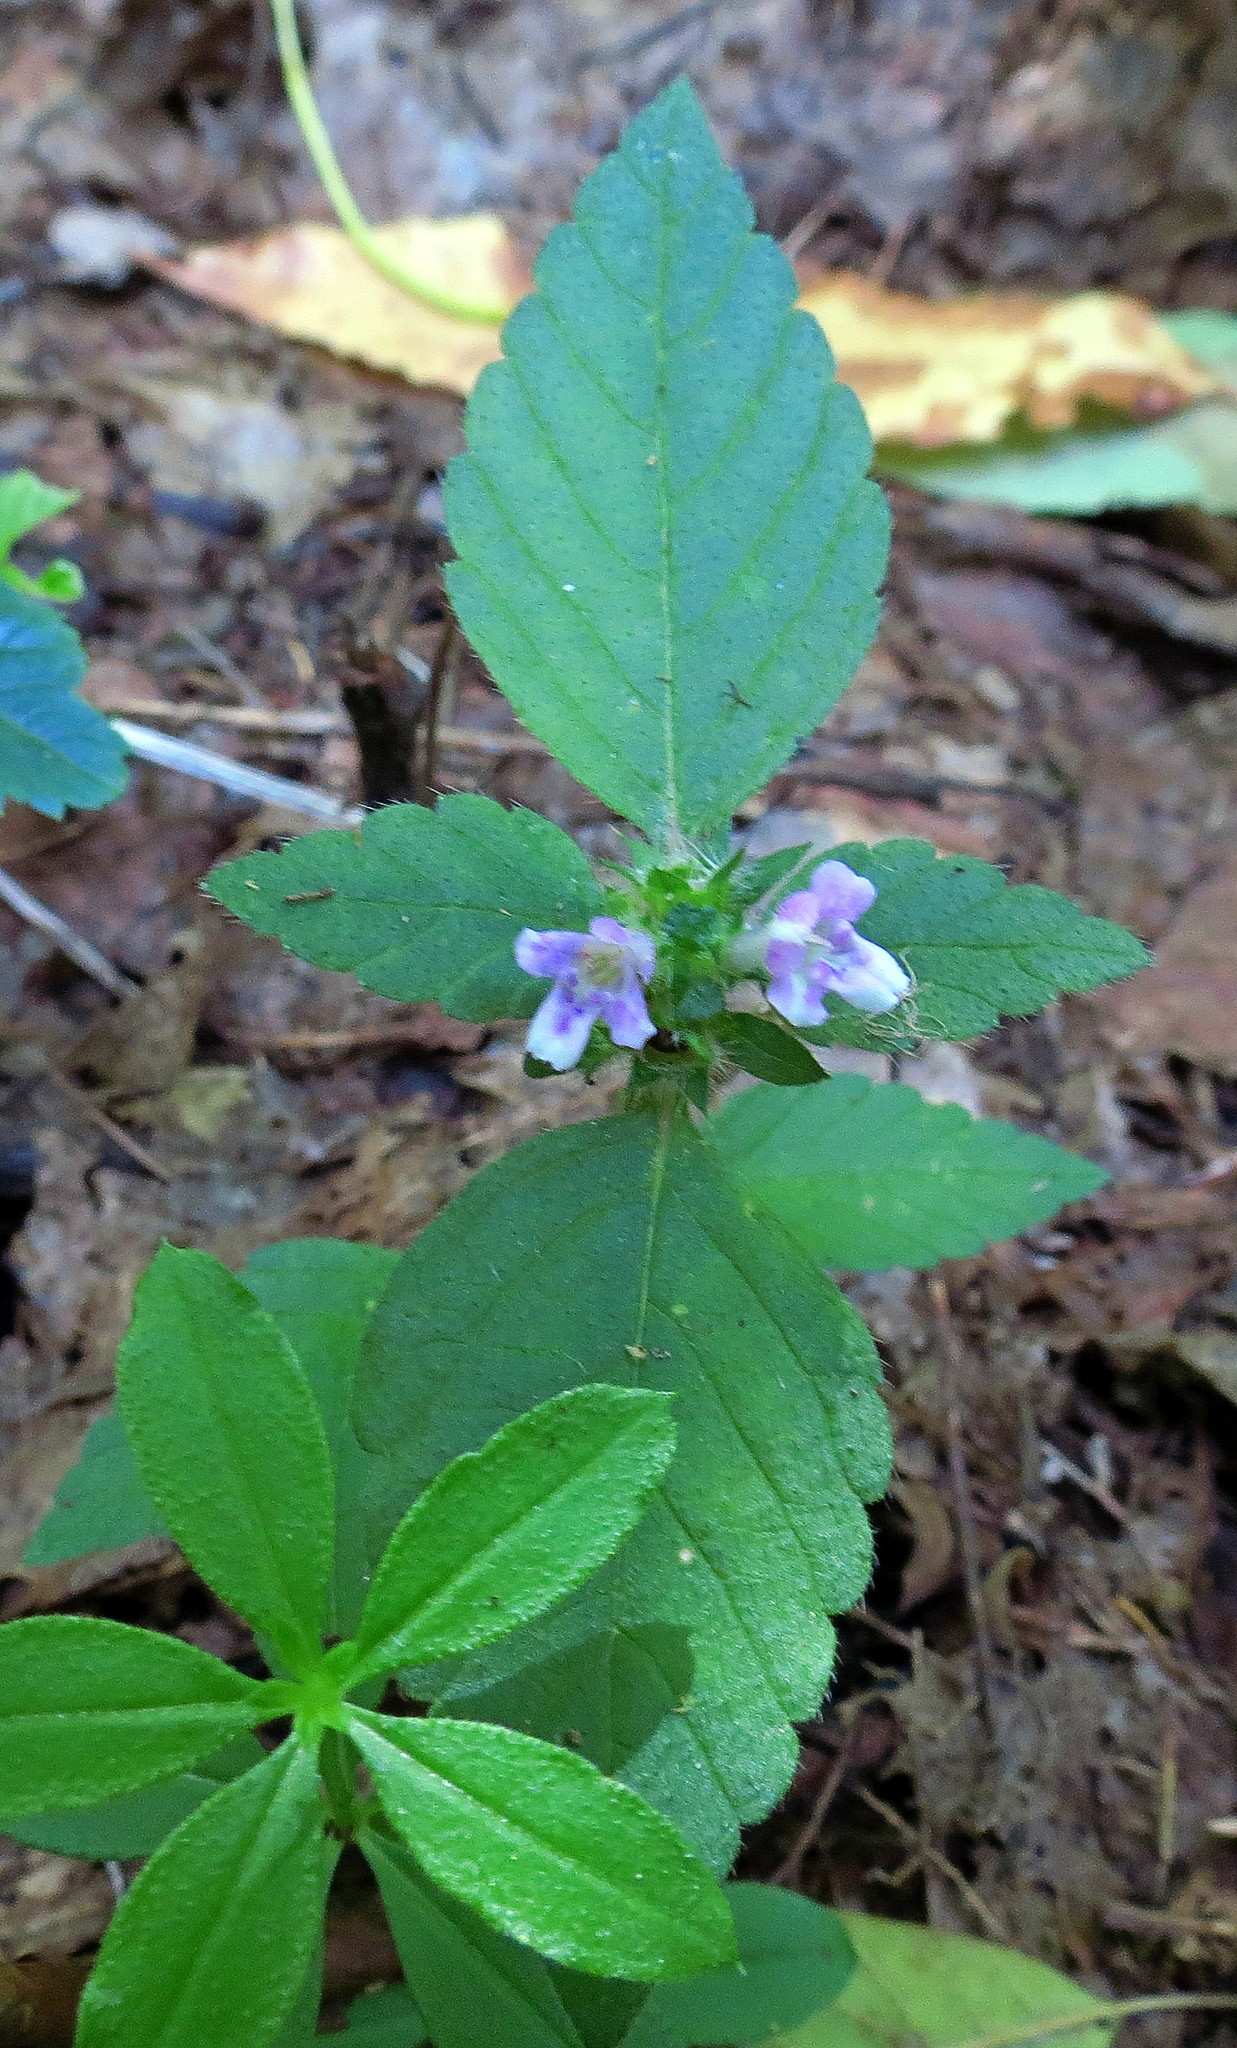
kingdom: Plantae
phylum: Tracheophyta
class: Magnoliopsida
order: Lamiales
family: Lamiaceae
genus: Galeopsis
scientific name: Galeopsis tetrahit
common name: Common hemp-nettle
